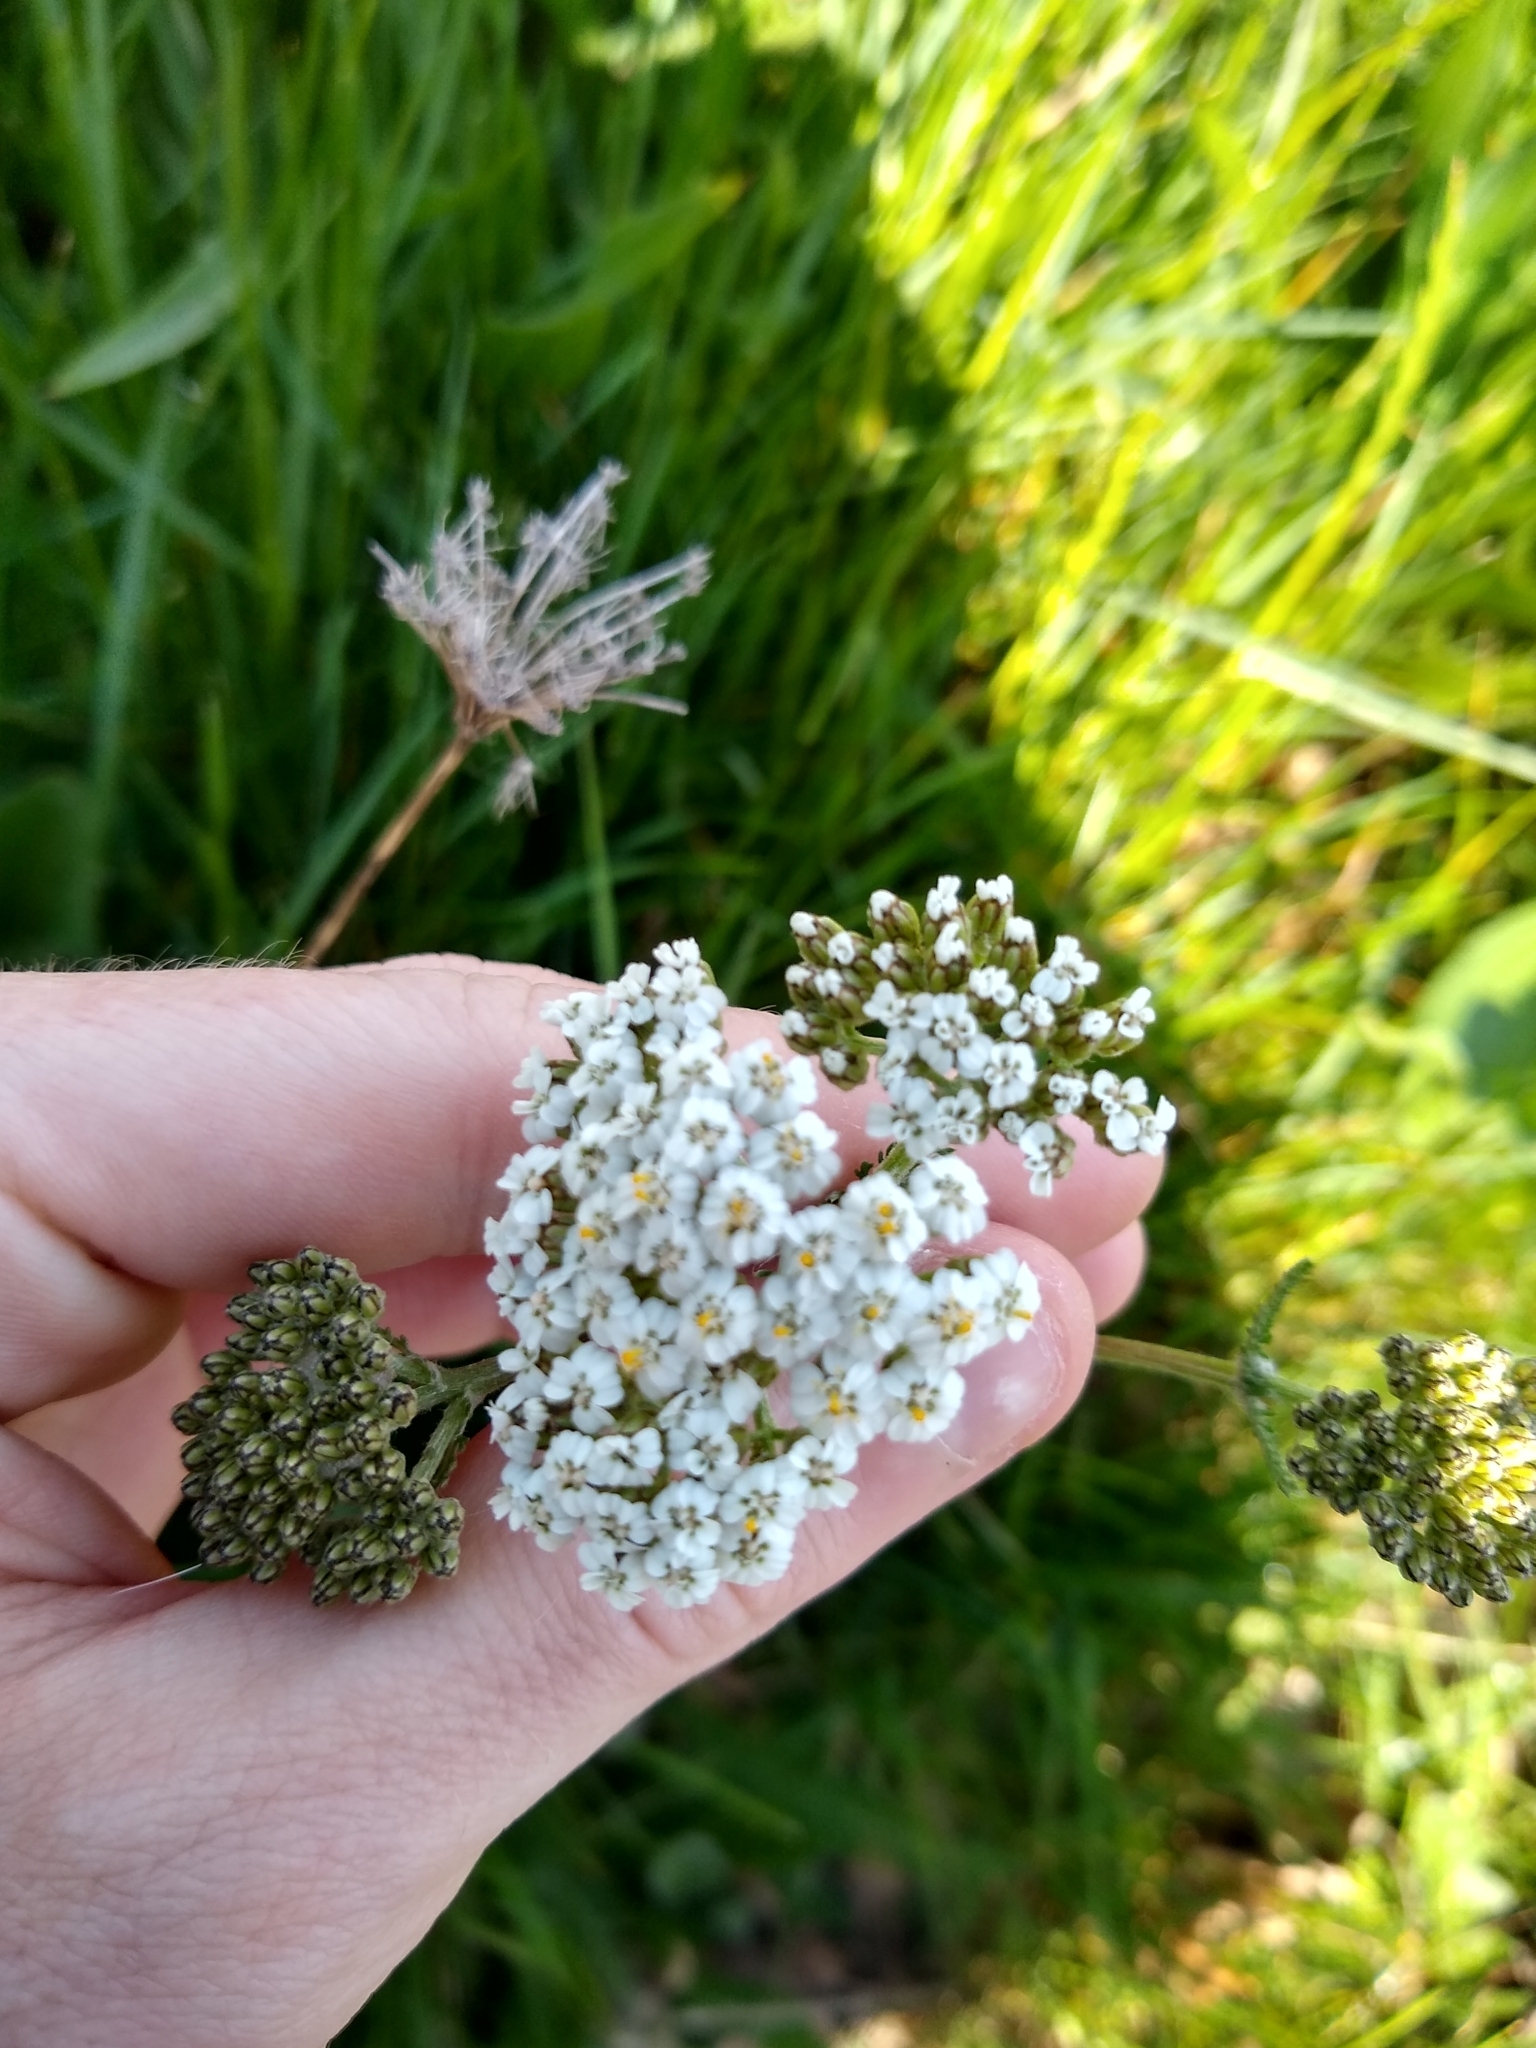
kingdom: Plantae
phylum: Tracheophyta
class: Magnoliopsida
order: Asterales
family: Asteraceae
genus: Achillea
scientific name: Achillea millefolium
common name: Yarrow
